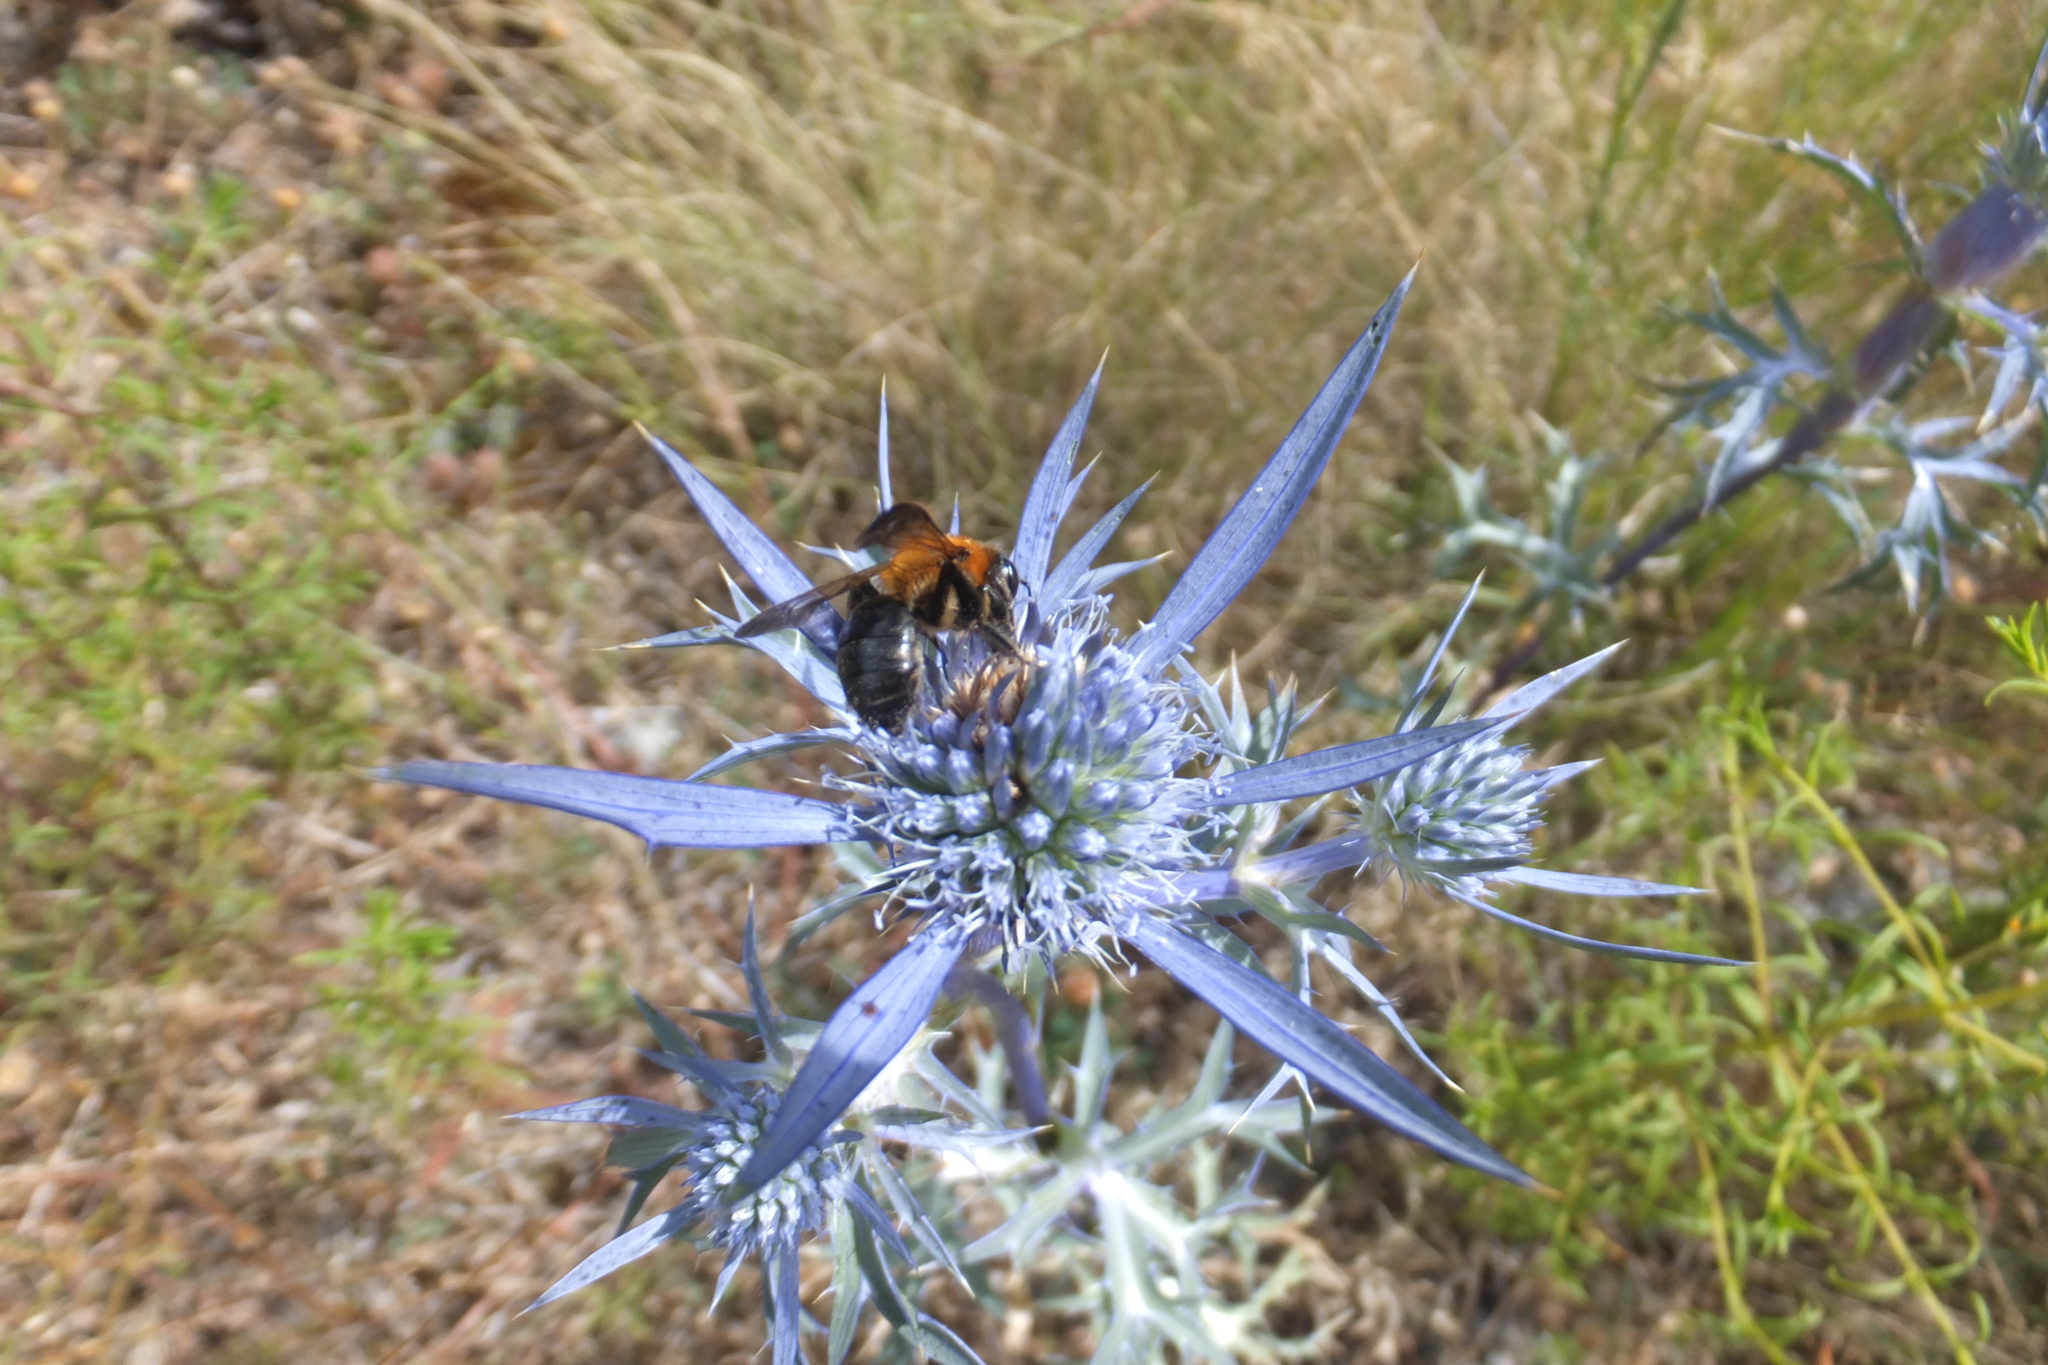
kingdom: Plantae
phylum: Tracheophyta
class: Magnoliopsida
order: Apiales
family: Apiaceae
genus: Eryngium
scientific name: Eryngium amethystinum
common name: Amethyst eryngo
